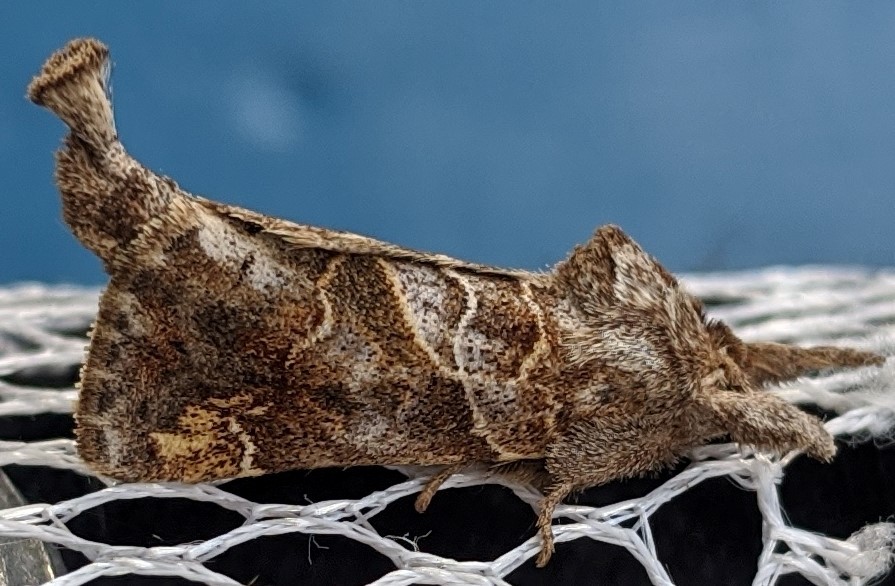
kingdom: Animalia
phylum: Arthropoda
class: Insecta
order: Lepidoptera
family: Notodontidae
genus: Clostera
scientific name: Clostera strigosa
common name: Striped chocolate-tip moth
